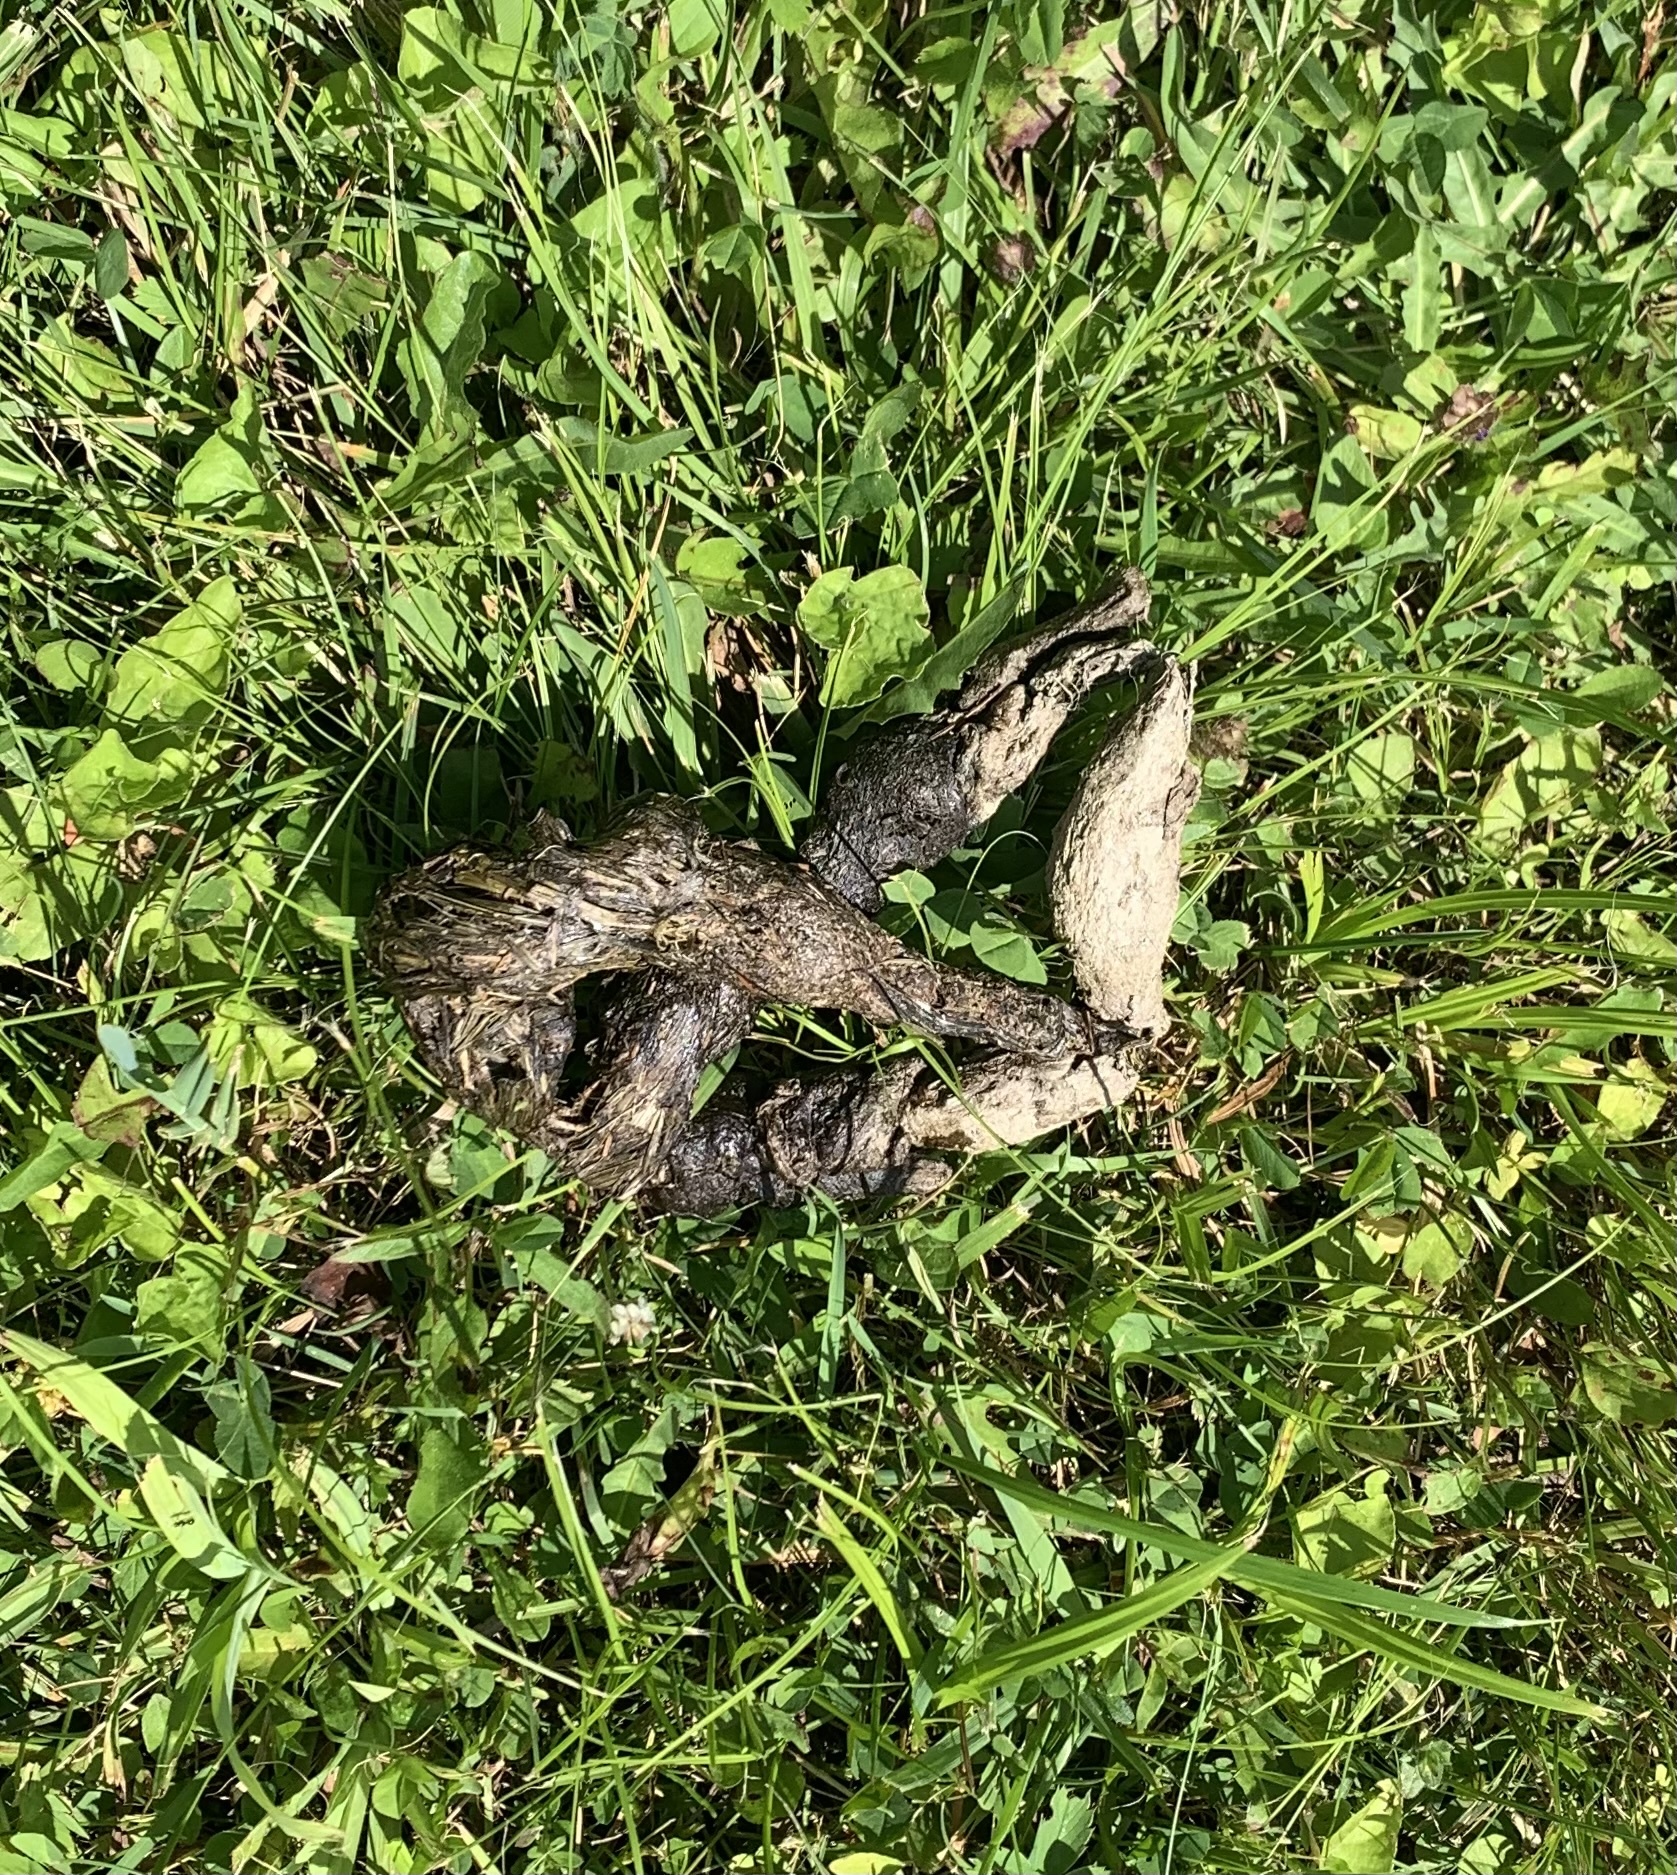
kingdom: Animalia
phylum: Chordata
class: Mammalia
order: Carnivora
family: Canidae
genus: Canis
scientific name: Canis latrans
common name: Coyote
